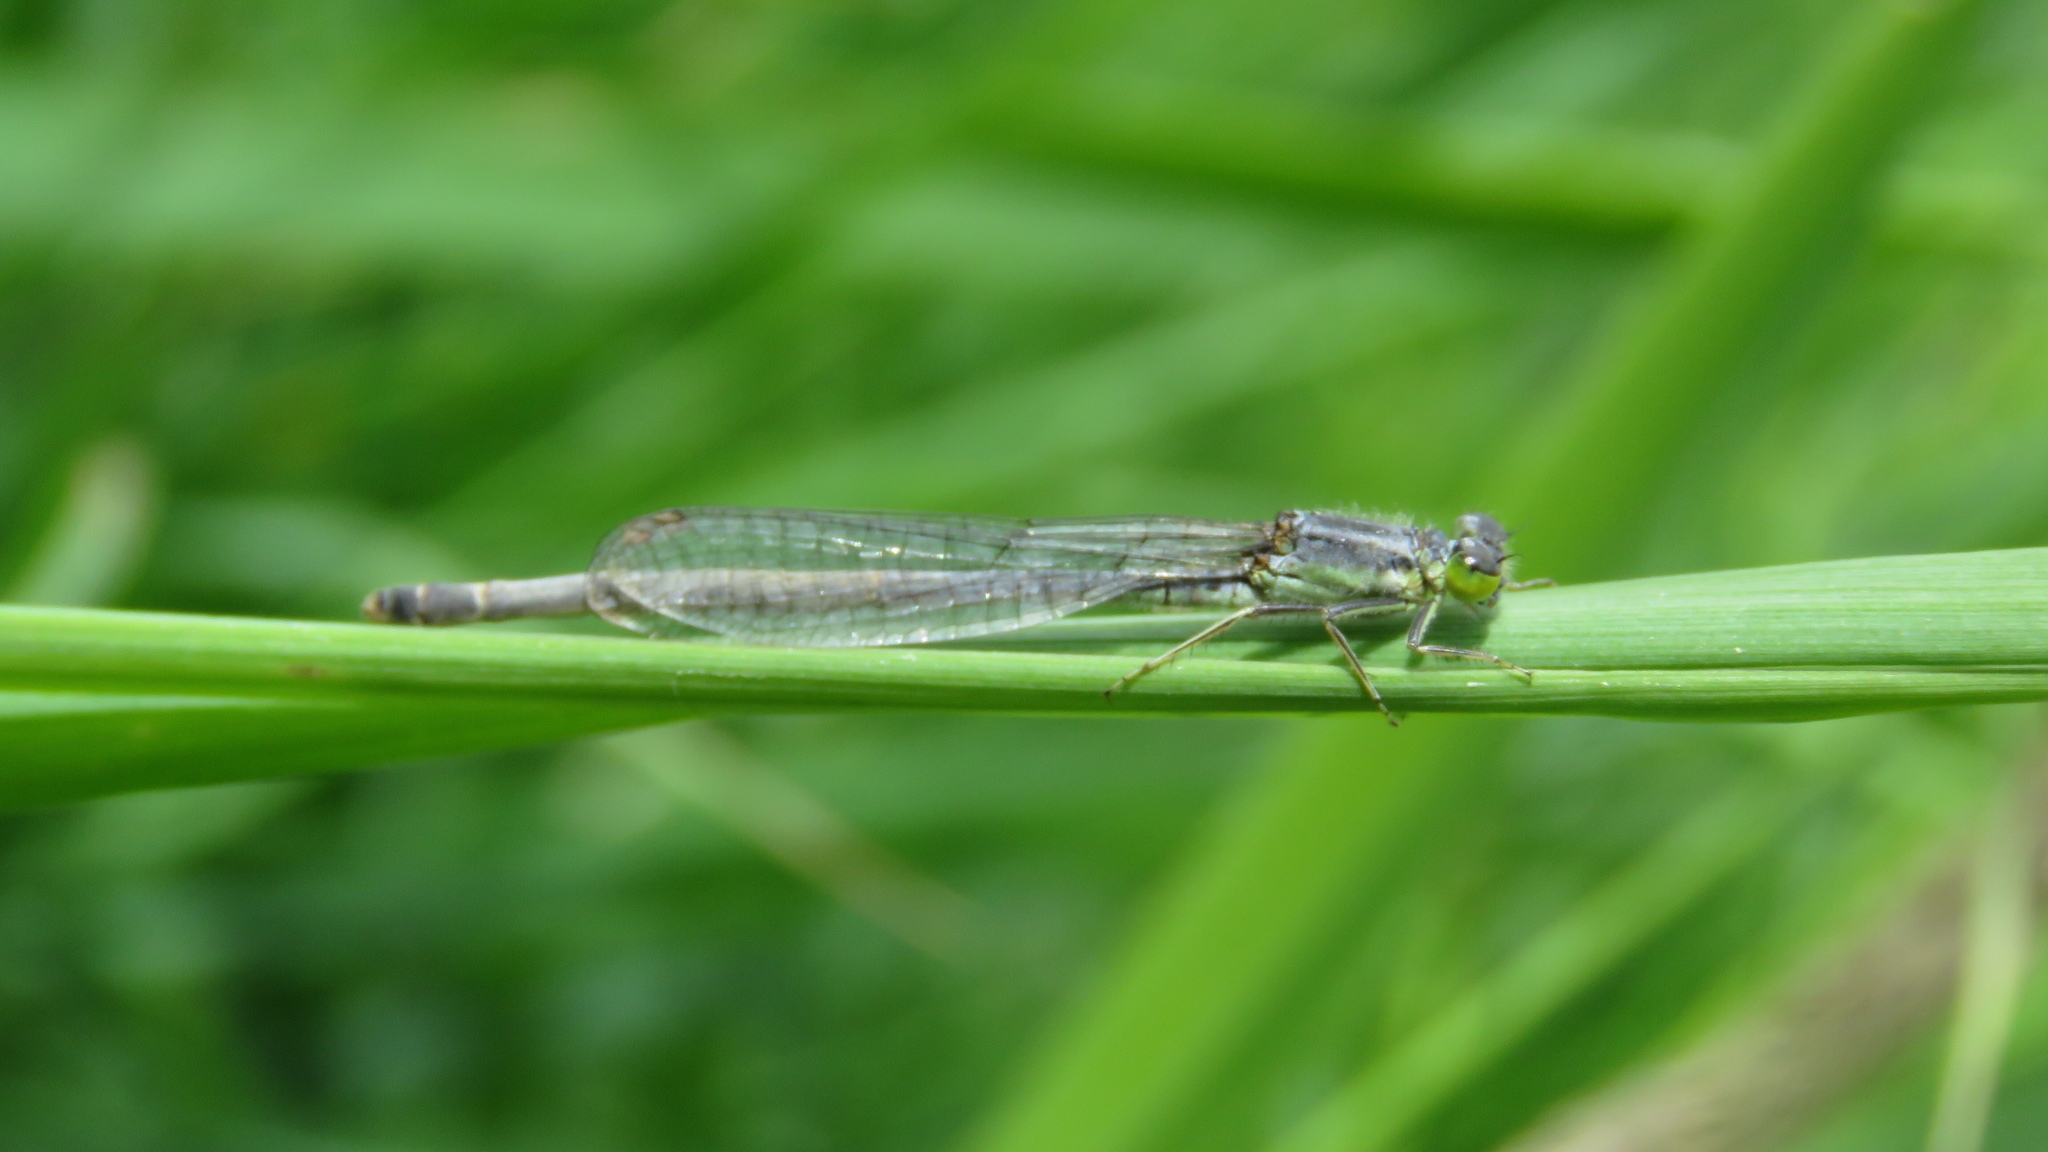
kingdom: Animalia
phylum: Arthropoda
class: Insecta
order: Odonata
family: Coenagrionidae
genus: Ischnura
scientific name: Ischnura verticalis
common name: Eastern forktail
